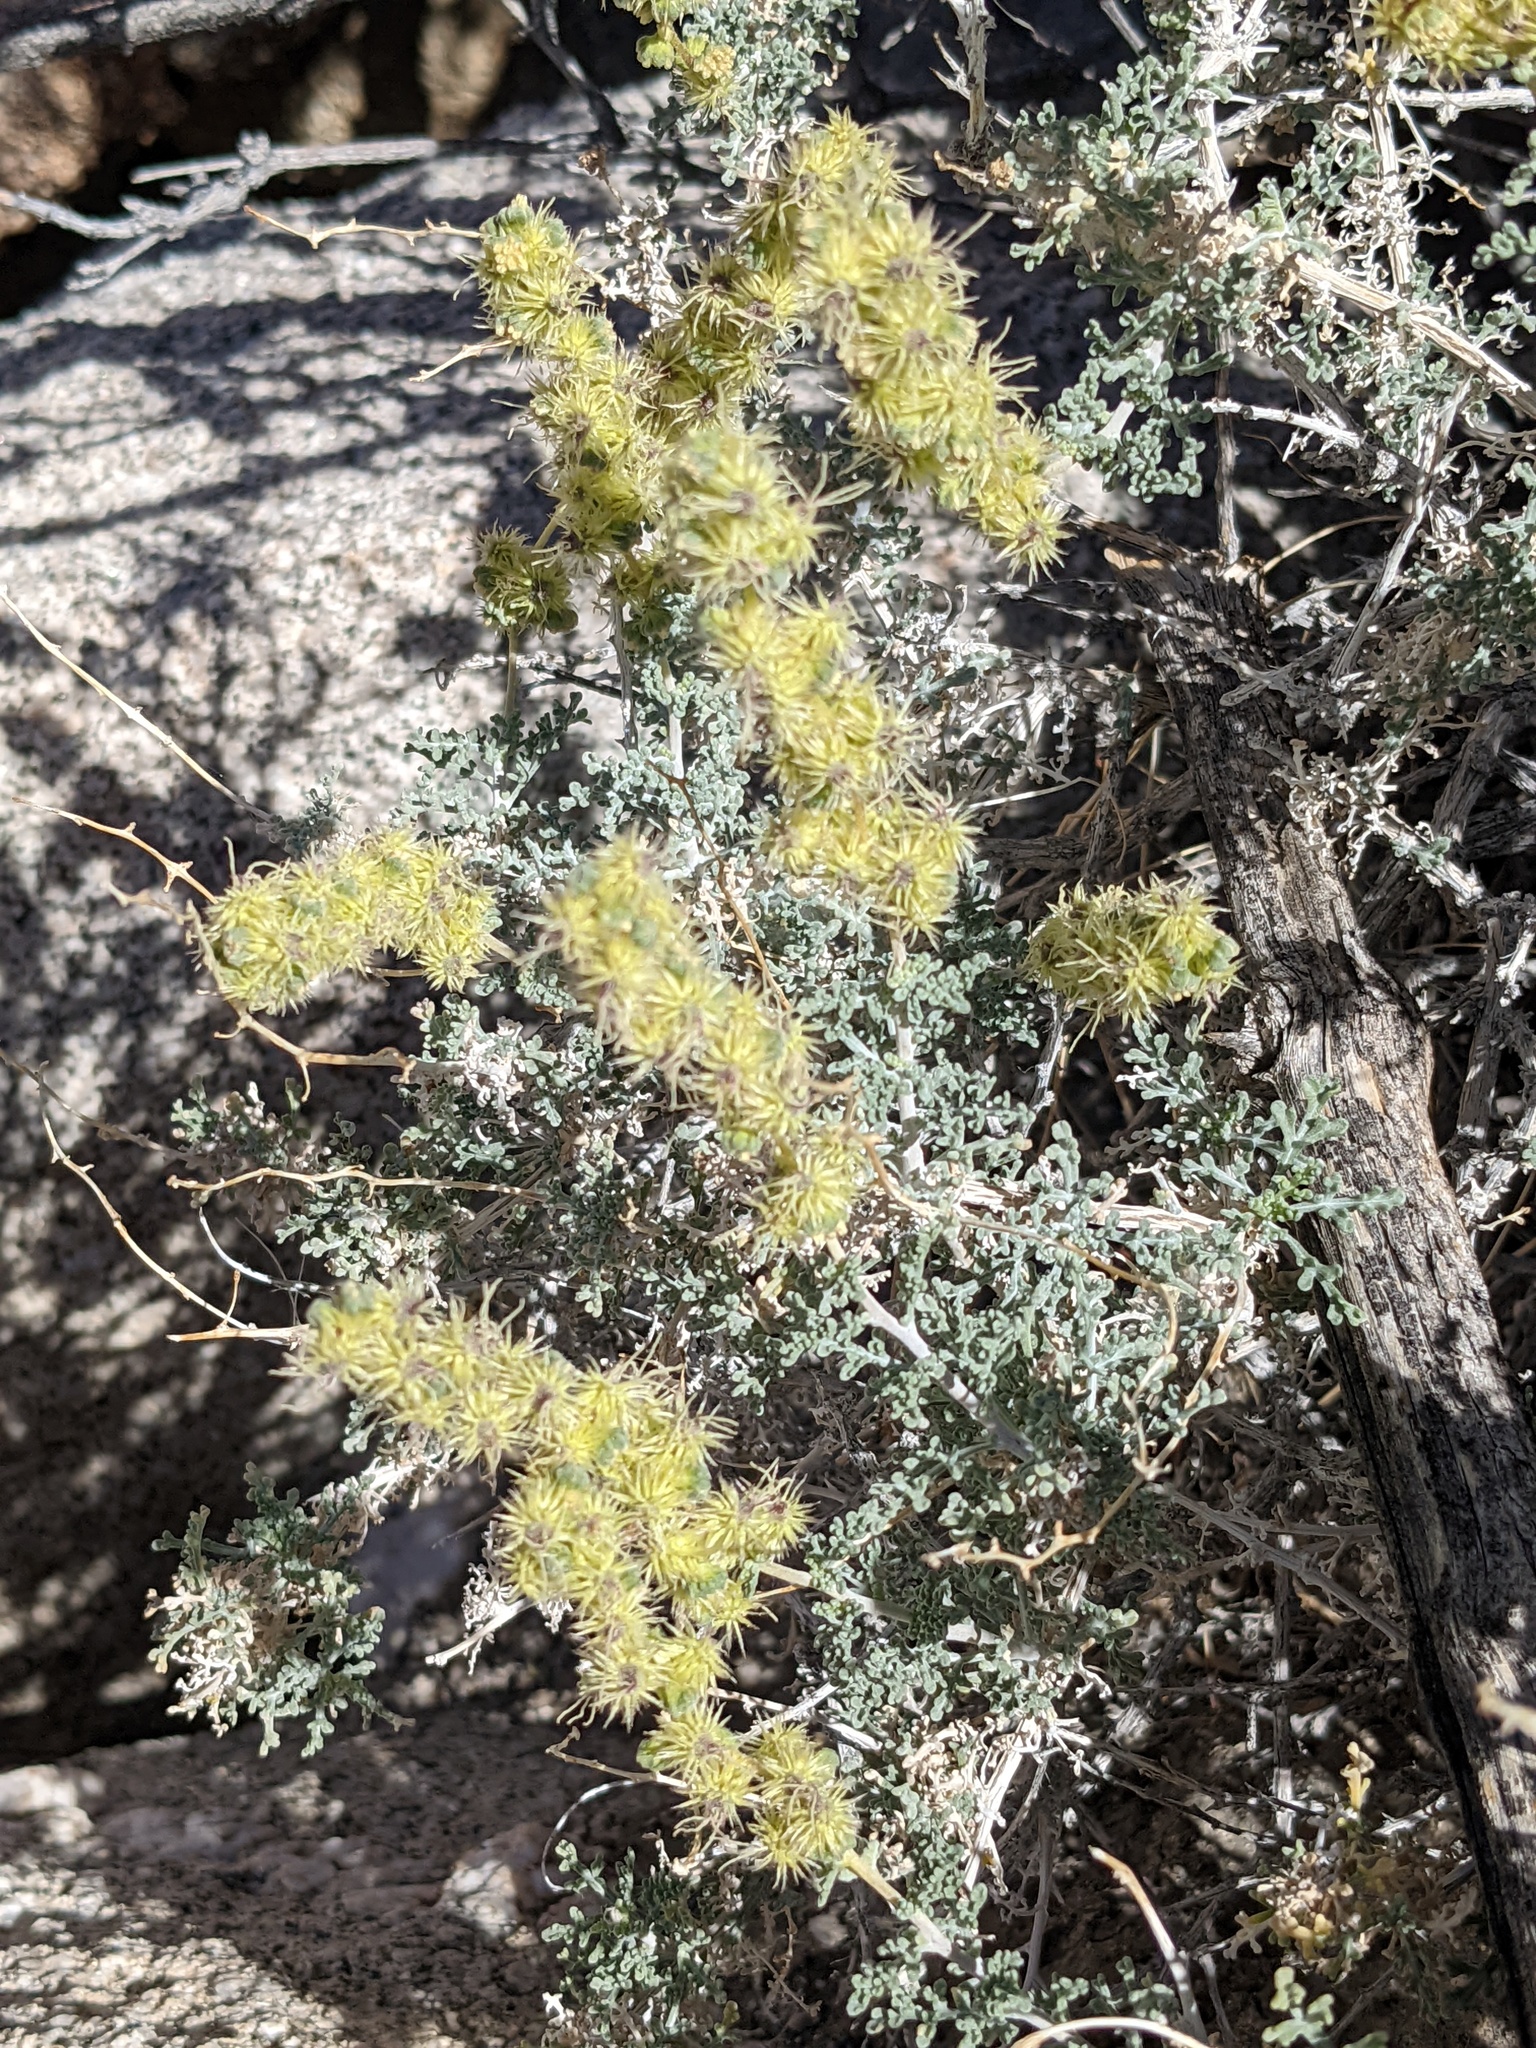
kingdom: Plantae
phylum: Tracheophyta
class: Magnoliopsida
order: Asterales
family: Asteraceae
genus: Ambrosia
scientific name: Ambrosia dumosa
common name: Bur-sage
